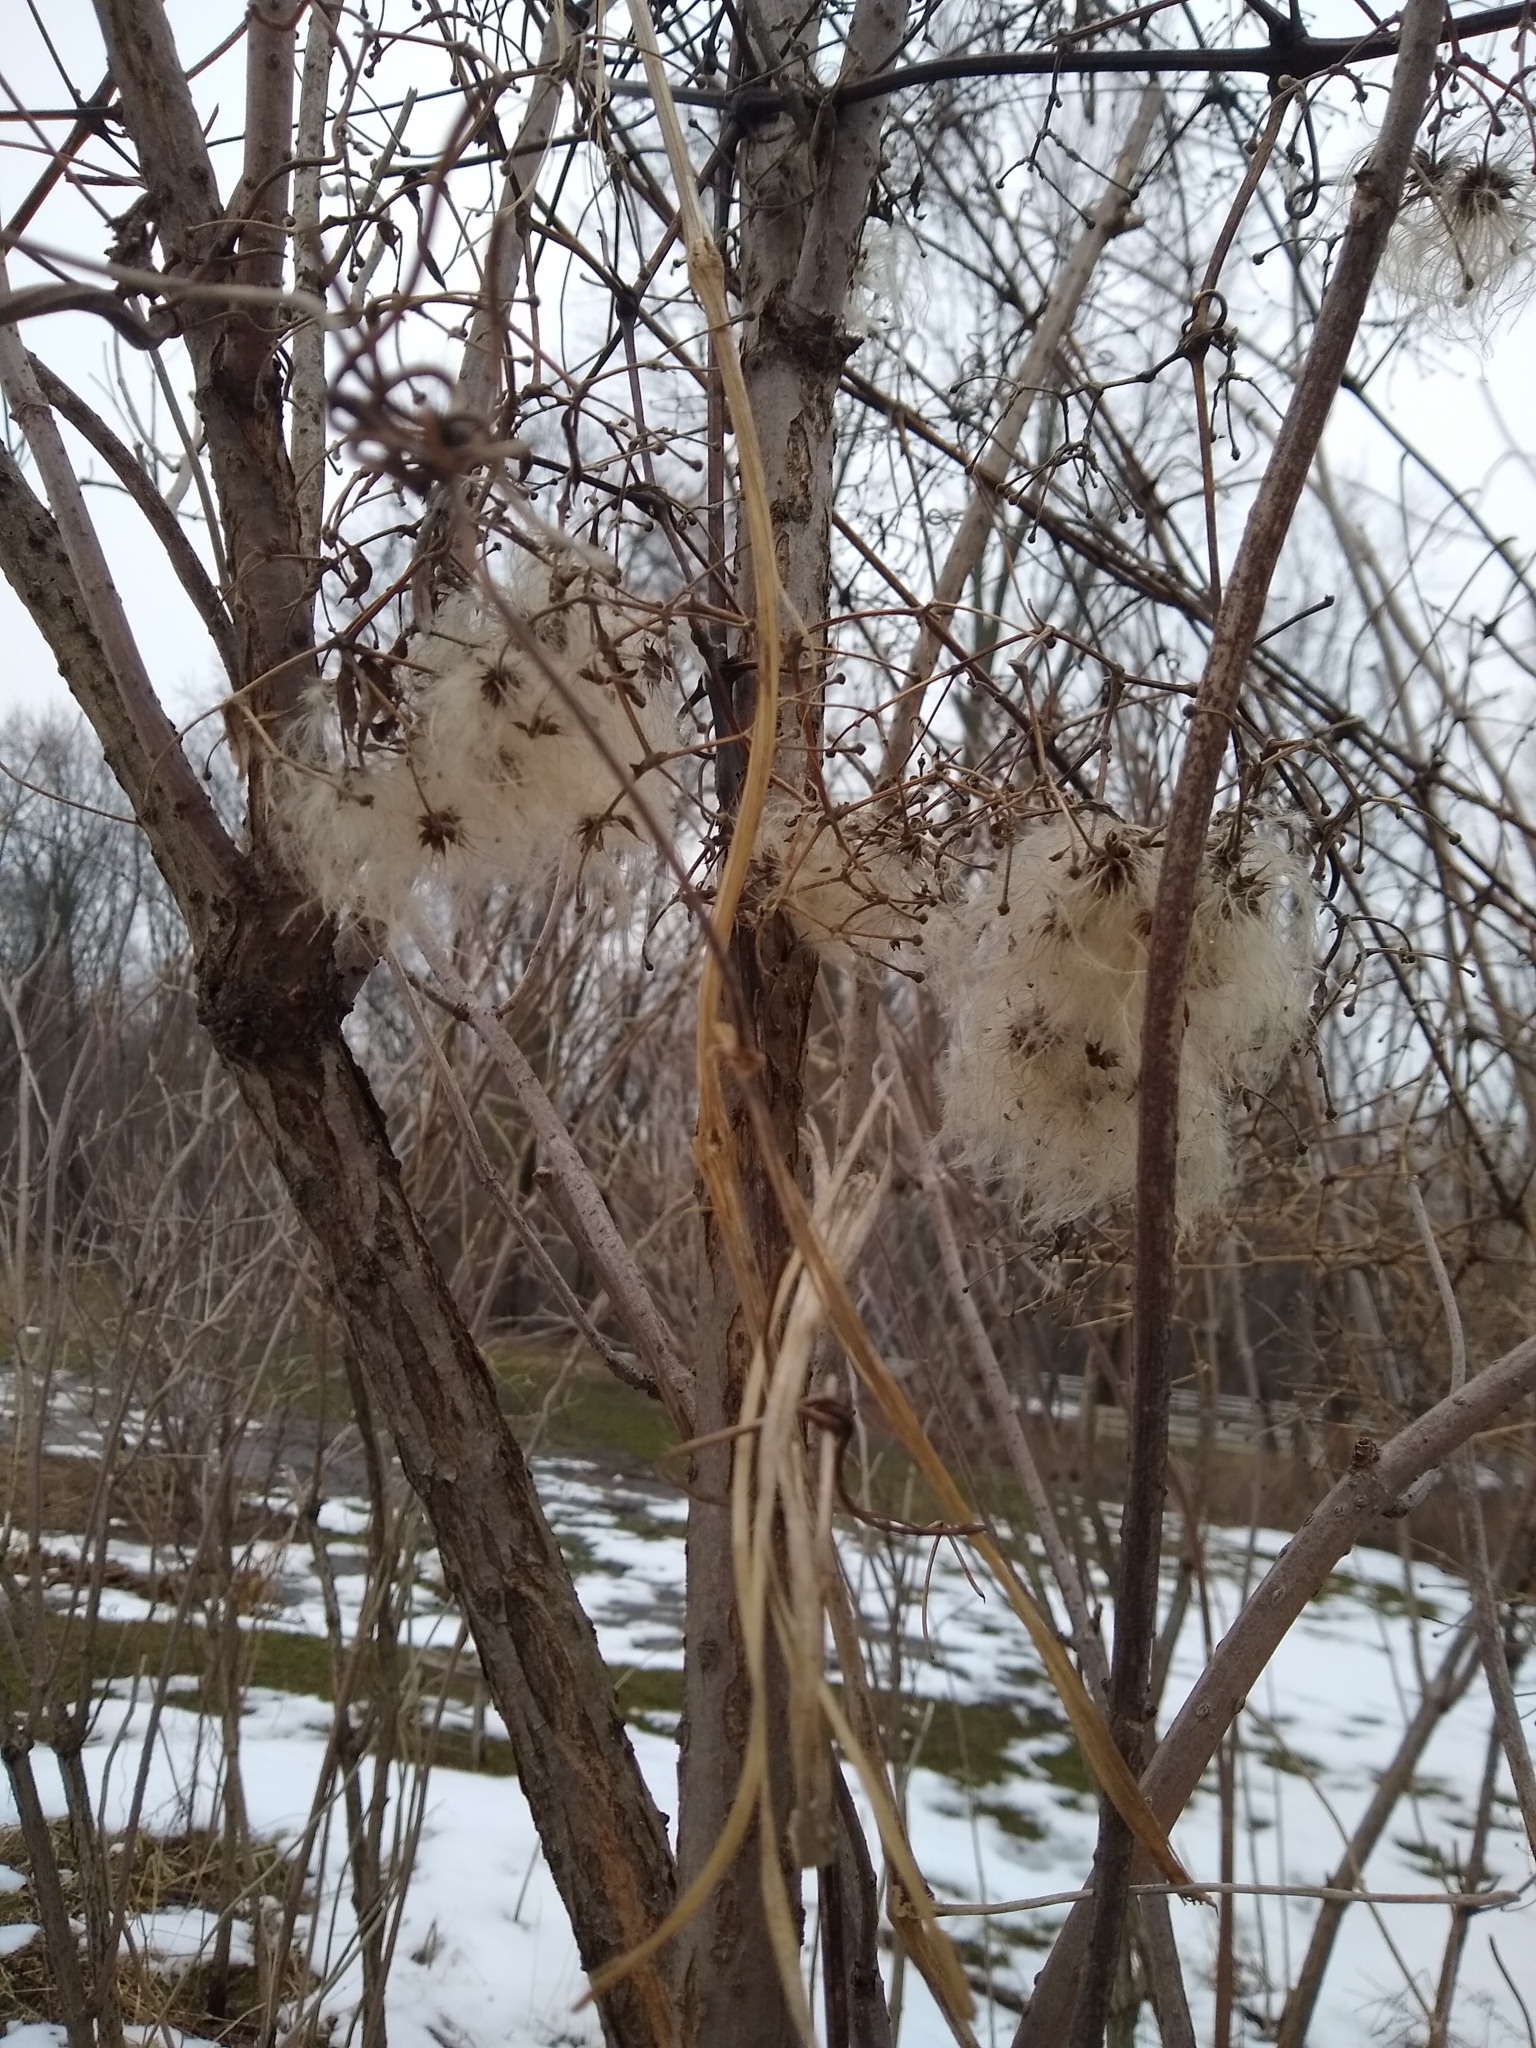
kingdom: Plantae
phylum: Tracheophyta
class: Magnoliopsida
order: Ranunculales
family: Ranunculaceae
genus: Clematis
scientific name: Clematis virginiana
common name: Virgin's-bower
